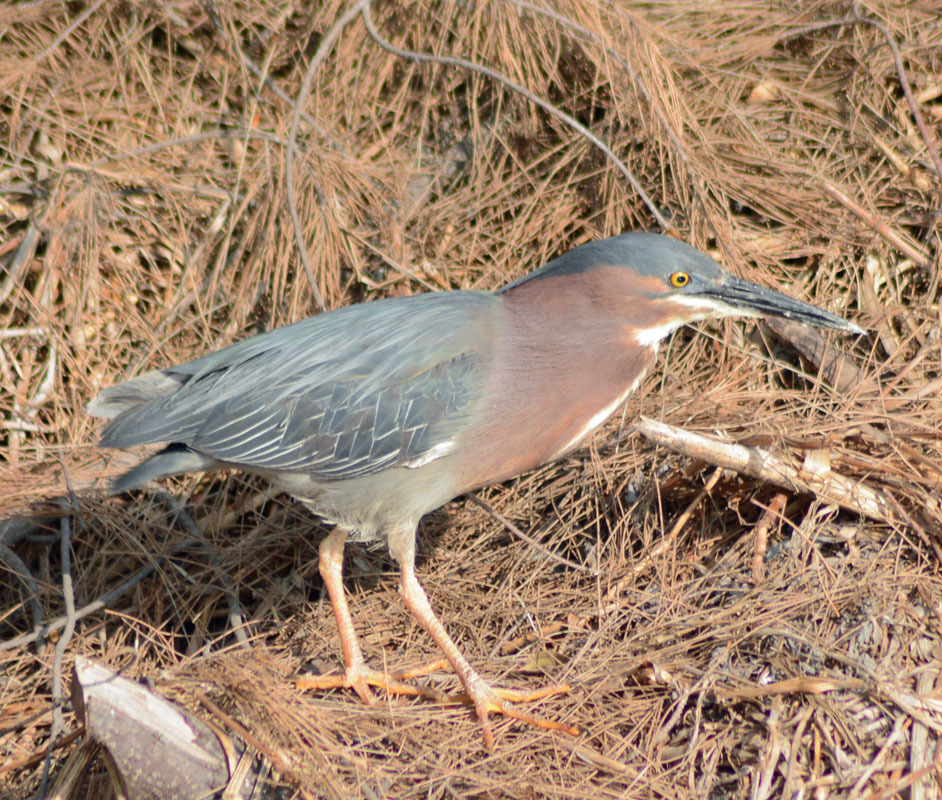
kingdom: Animalia
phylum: Chordata
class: Aves
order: Pelecaniformes
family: Ardeidae
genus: Butorides
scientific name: Butorides virescens
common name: Green heron
